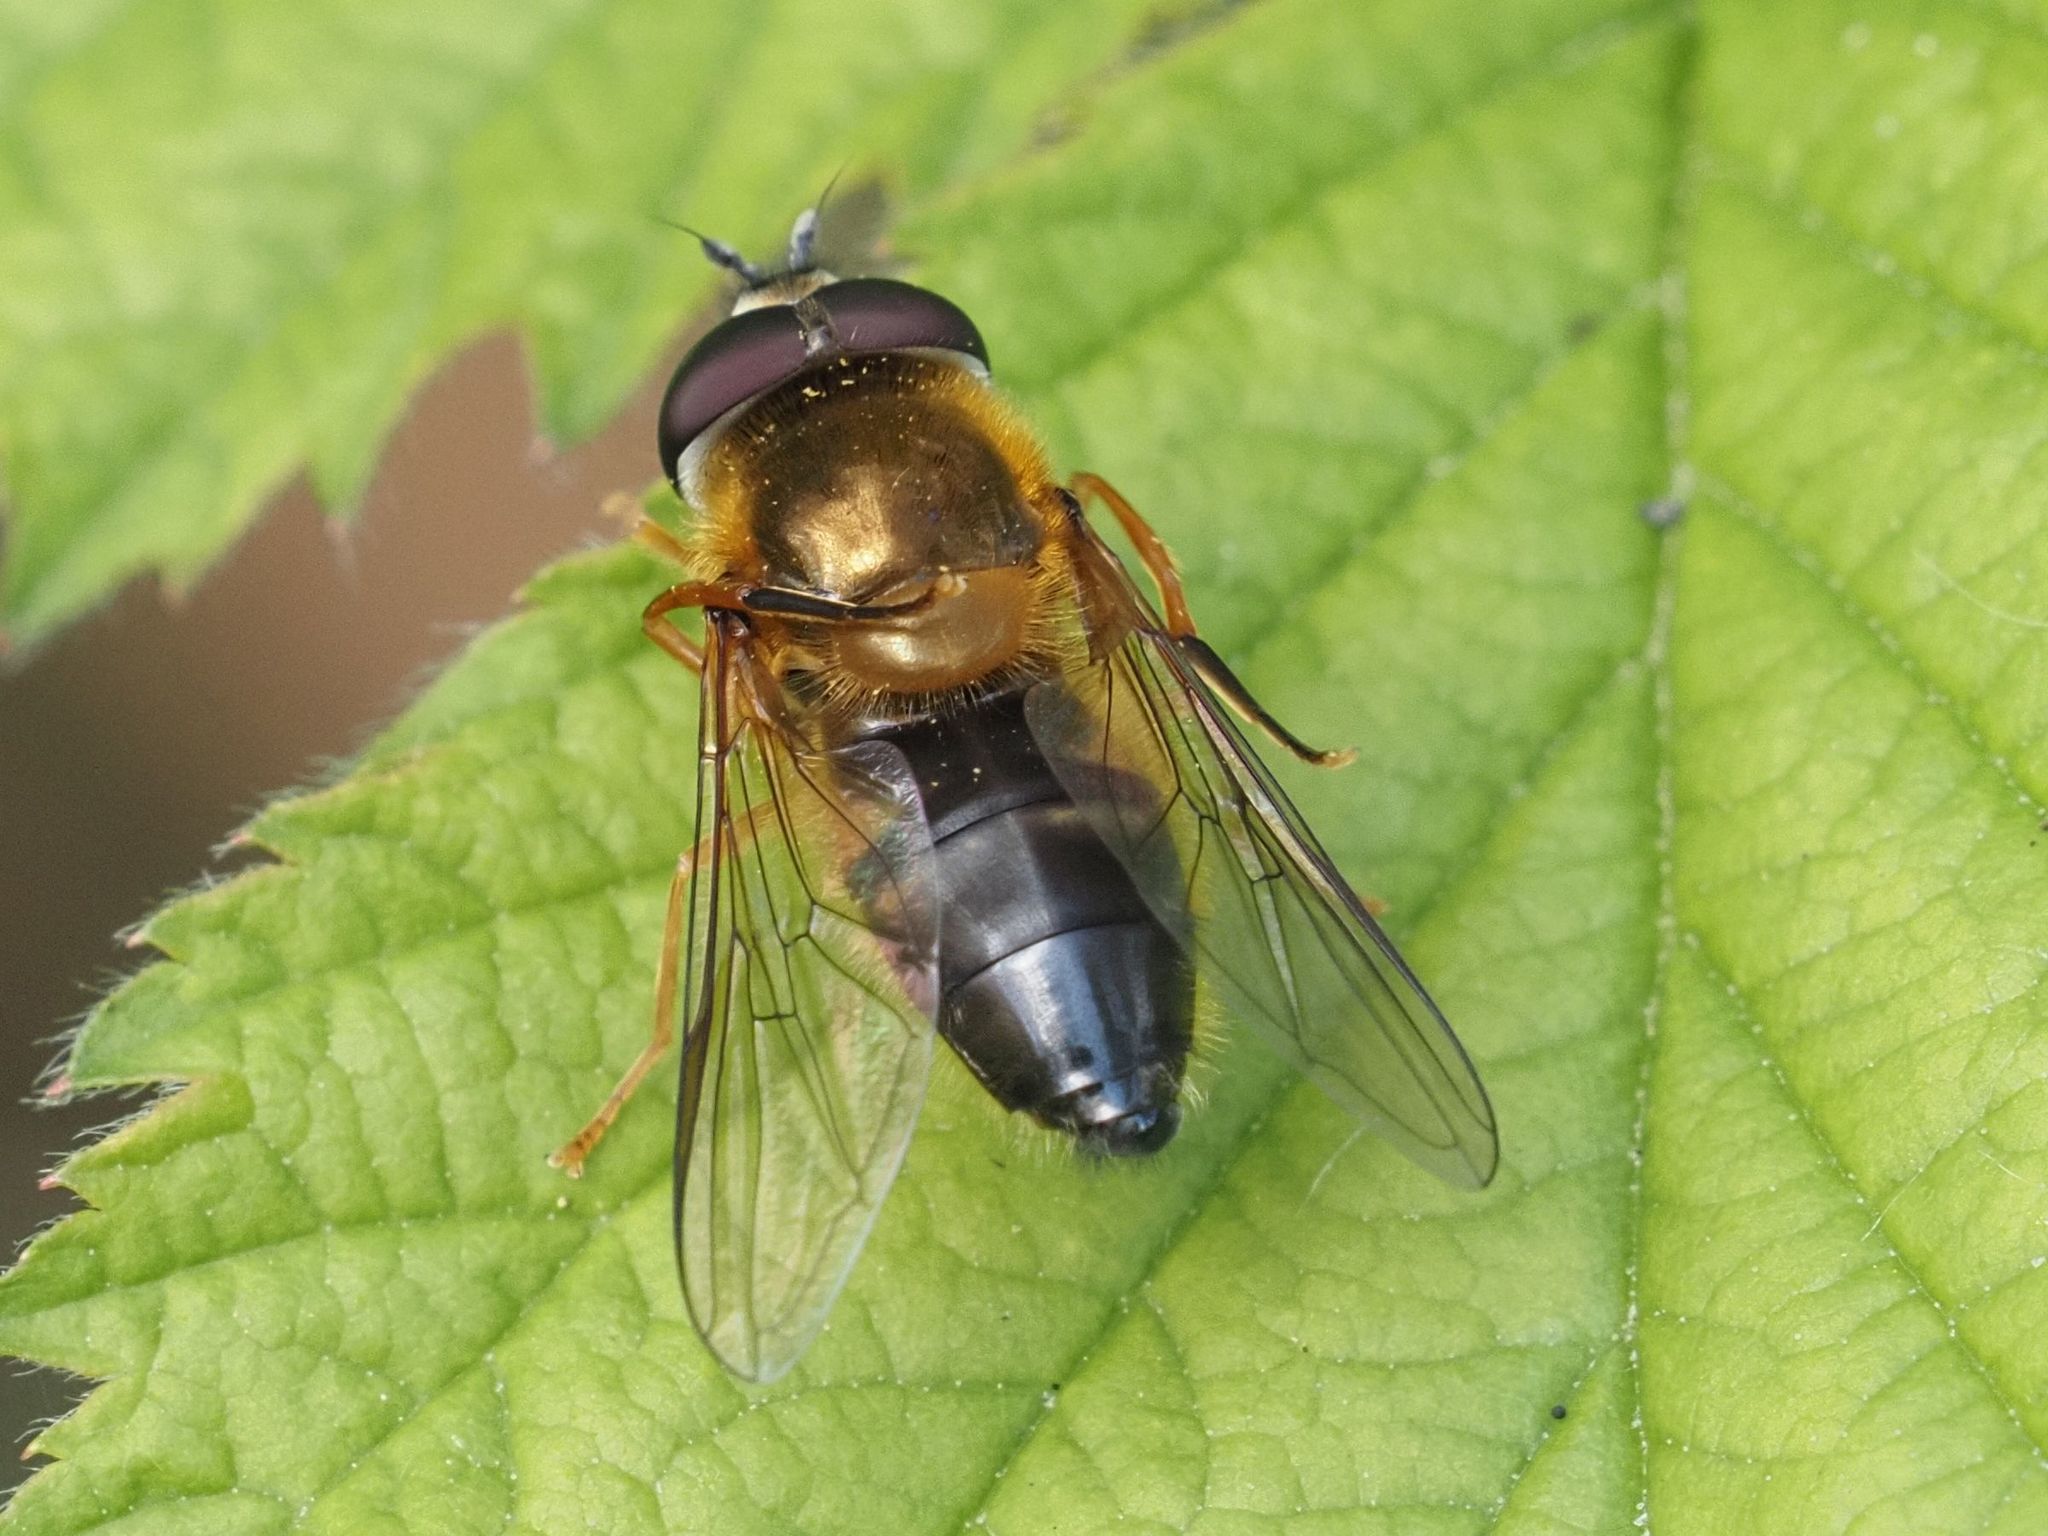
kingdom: Animalia
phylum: Arthropoda
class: Insecta
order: Diptera
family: Syrphidae
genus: Epistrophe
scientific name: Epistrophe eligans
